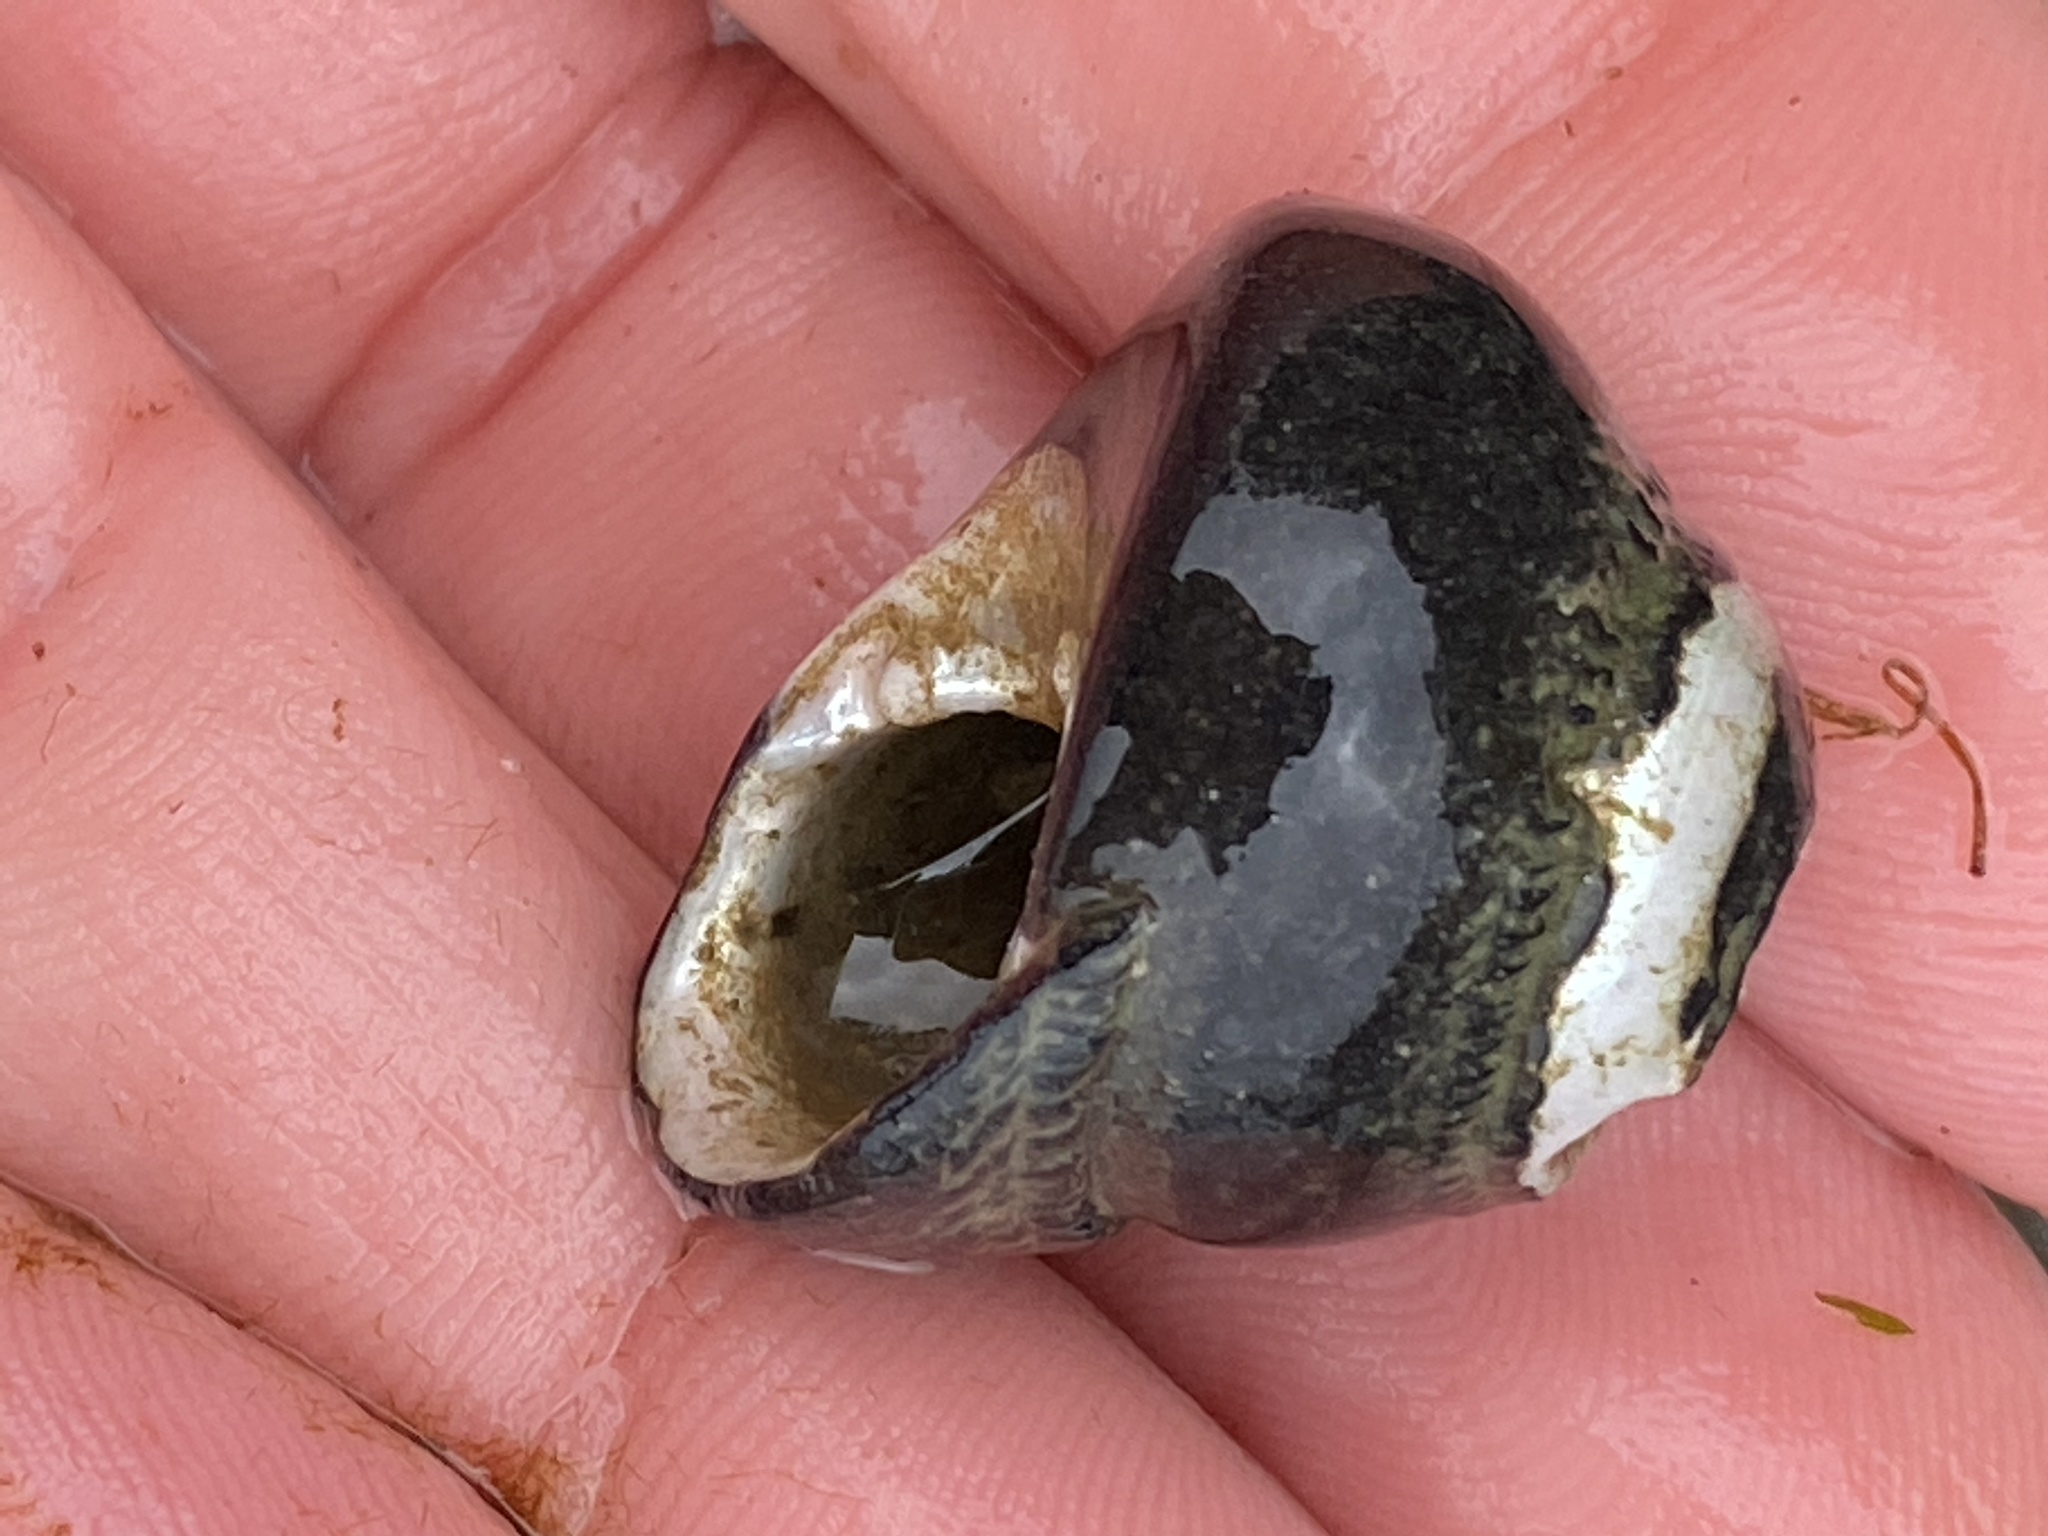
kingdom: Animalia
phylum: Mollusca
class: Gastropoda
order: Trochida
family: Tegulidae
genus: Tegula
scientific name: Tegula funebralis
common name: Black tegula
